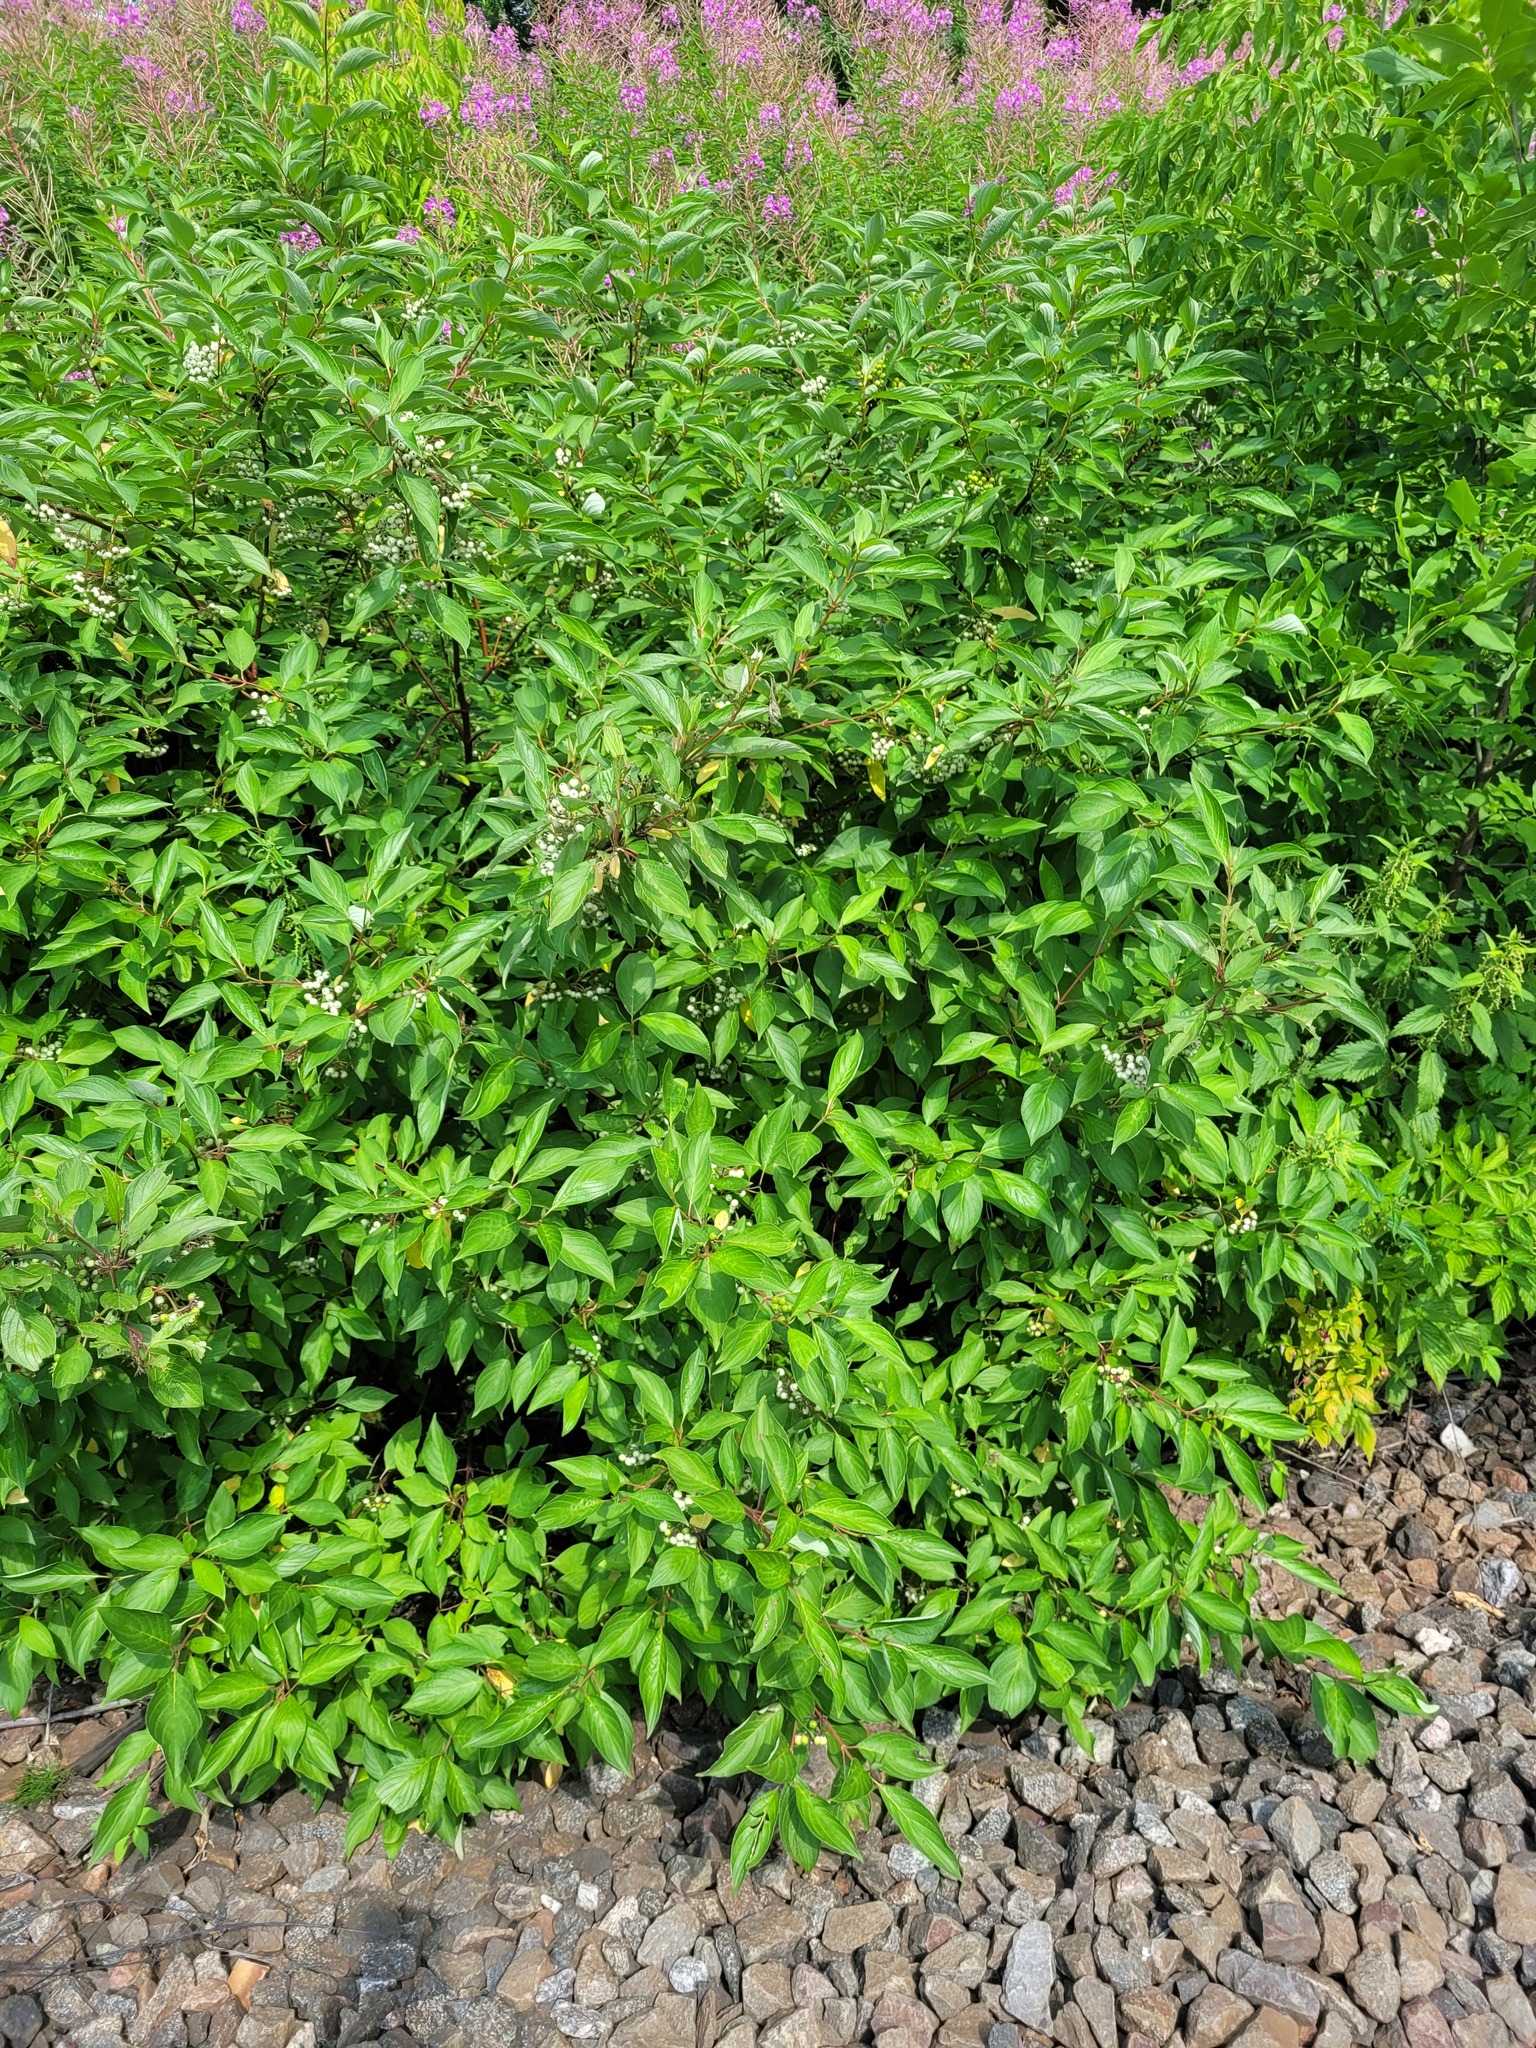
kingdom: Plantae
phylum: Tracheophyta
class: Magnoliopsida
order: Cornales
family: Cornaceae
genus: Cornus
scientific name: Cornus alba
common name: White dogwood
